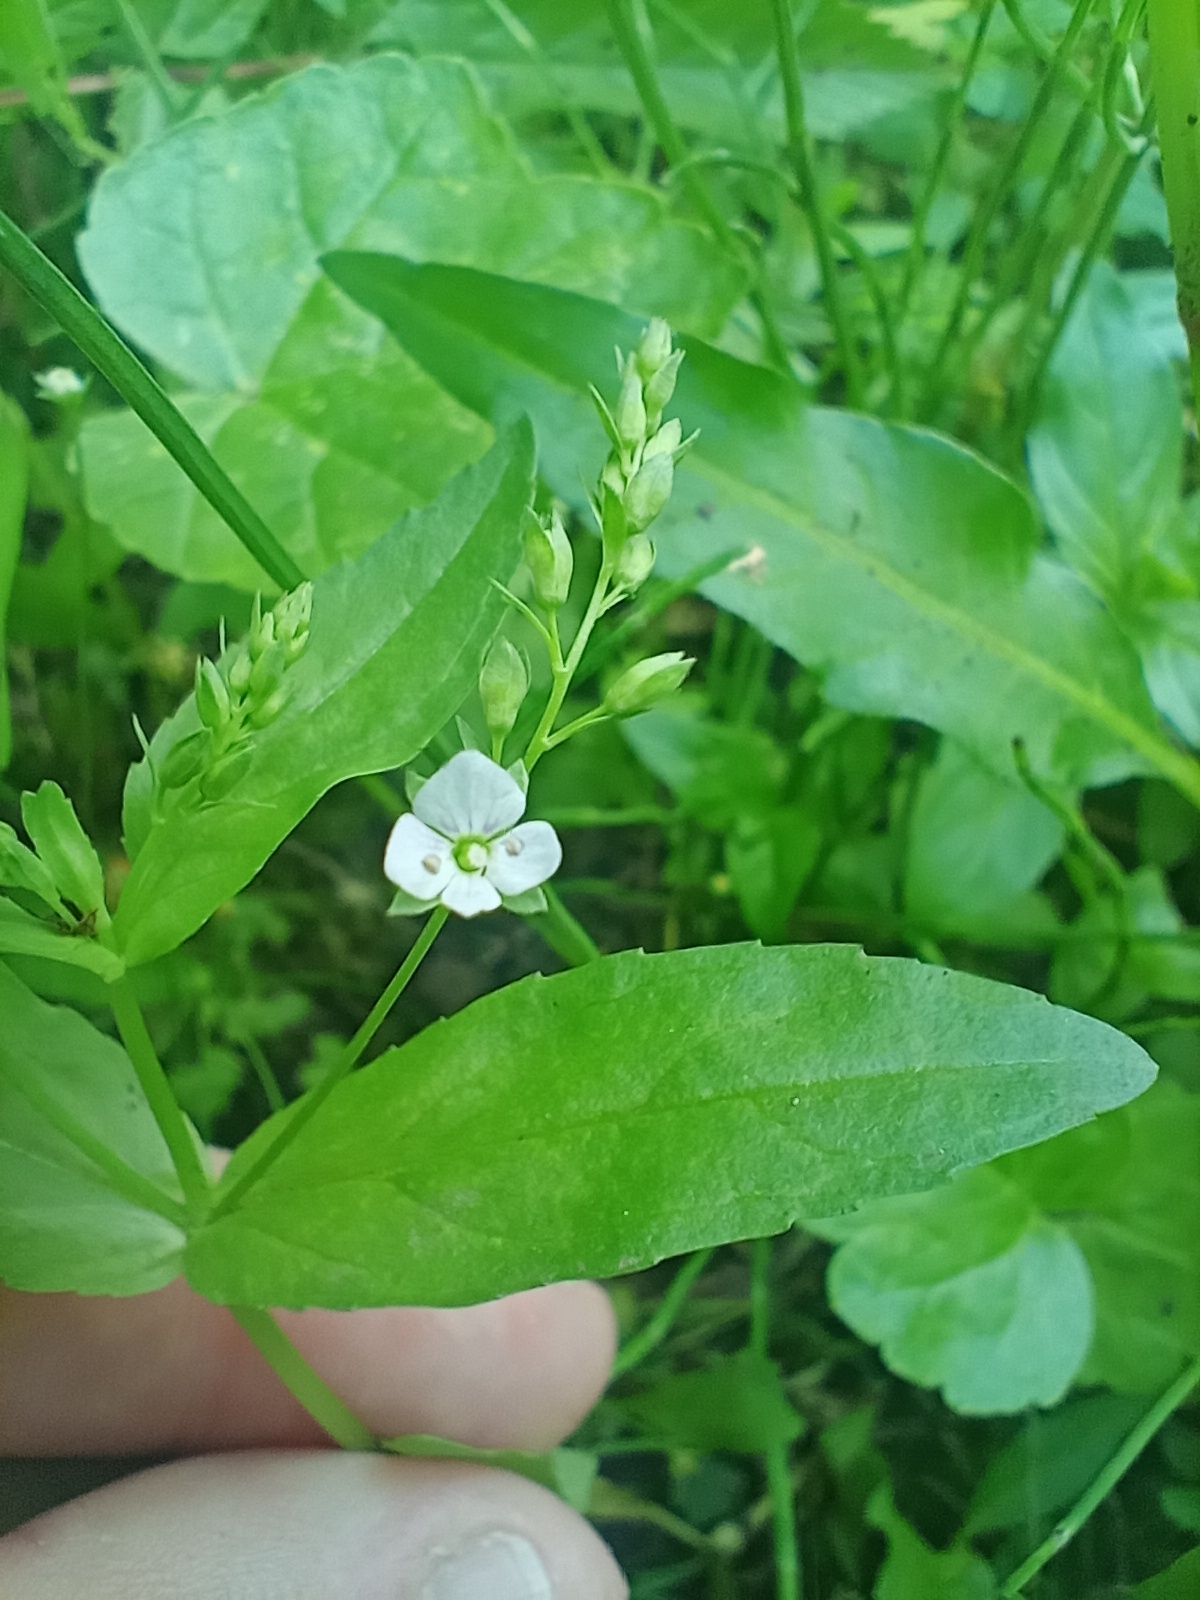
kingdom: Plantae
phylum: Tracheophyta
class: Magnoliopsida
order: Lamiales
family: Plantaginaceae
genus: Veronica
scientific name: Veronica anagallis-aquatica
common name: Water speedwell
